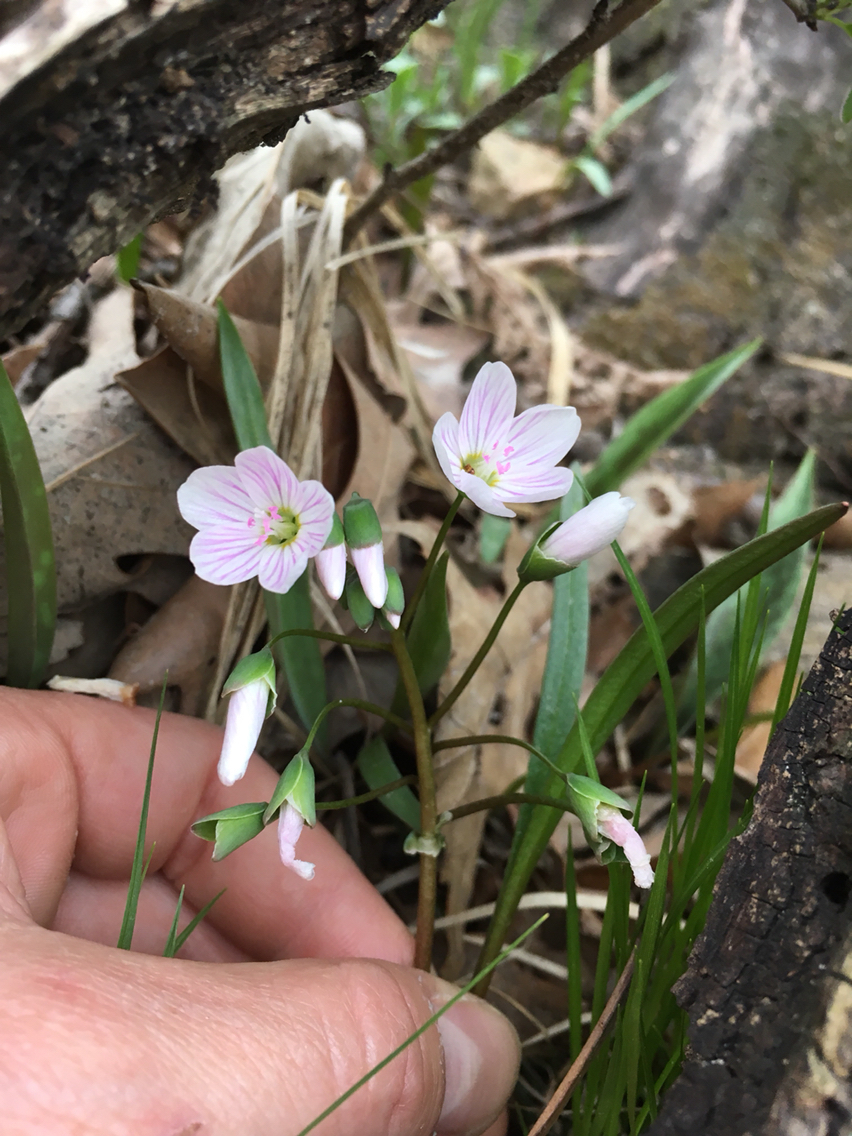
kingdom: Plantae
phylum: Tracheophyta
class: Magnoliopsida
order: Caryophyllales
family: Montiaceae
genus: Claytonia
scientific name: Claytonia virginica
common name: Virginia springbeauty
